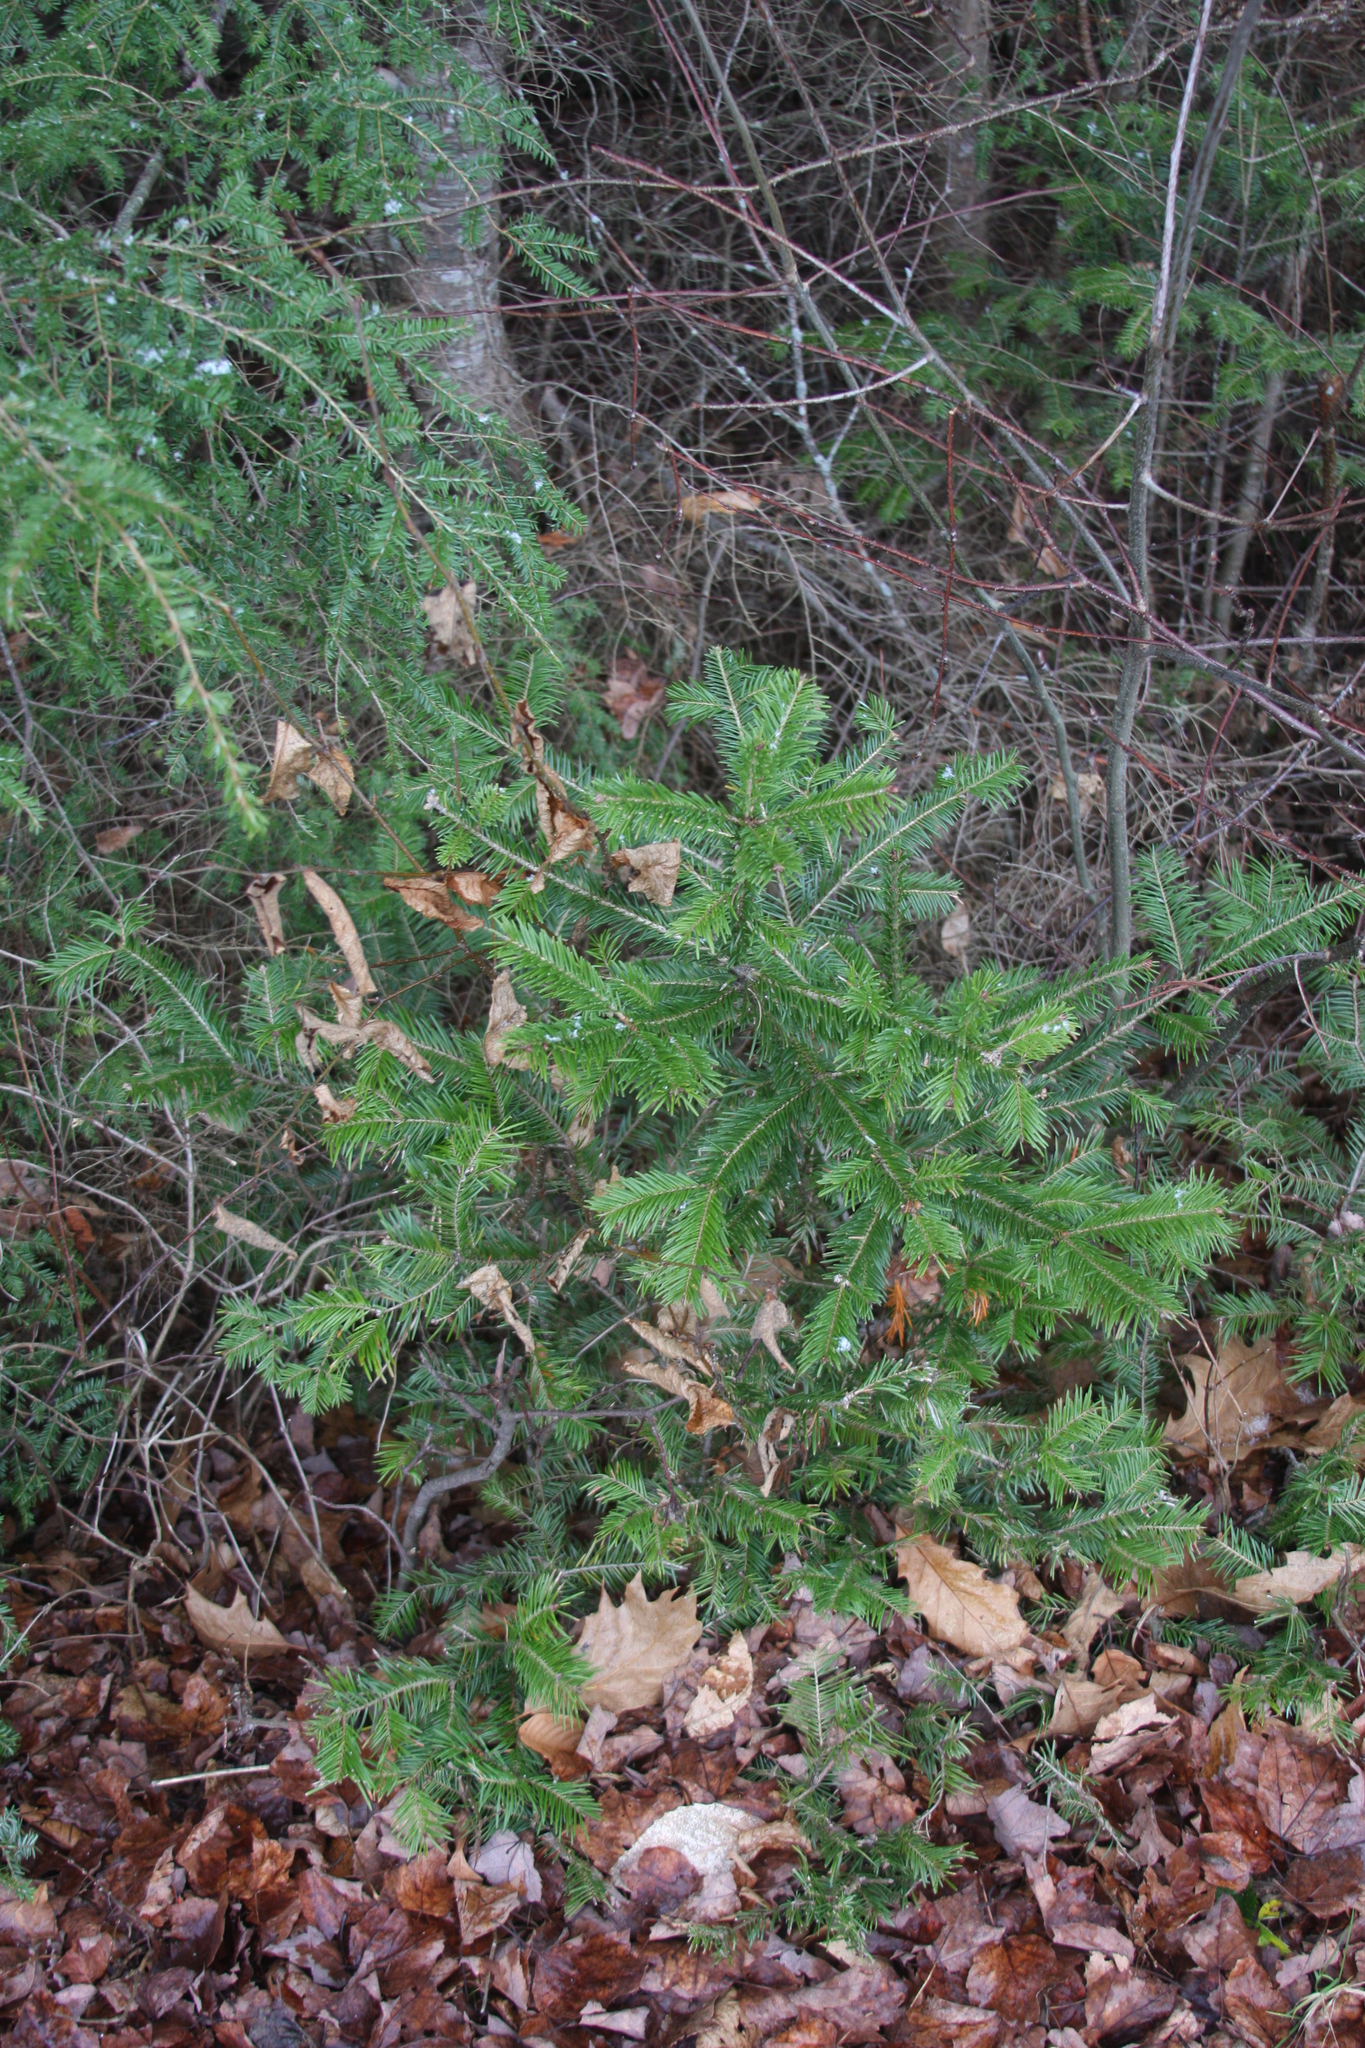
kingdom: Plantae
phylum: Tracheophyta
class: Pinopsida
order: Pinales
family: Pinaceae
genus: Abies
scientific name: Abies balsamea
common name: Balsam fir
